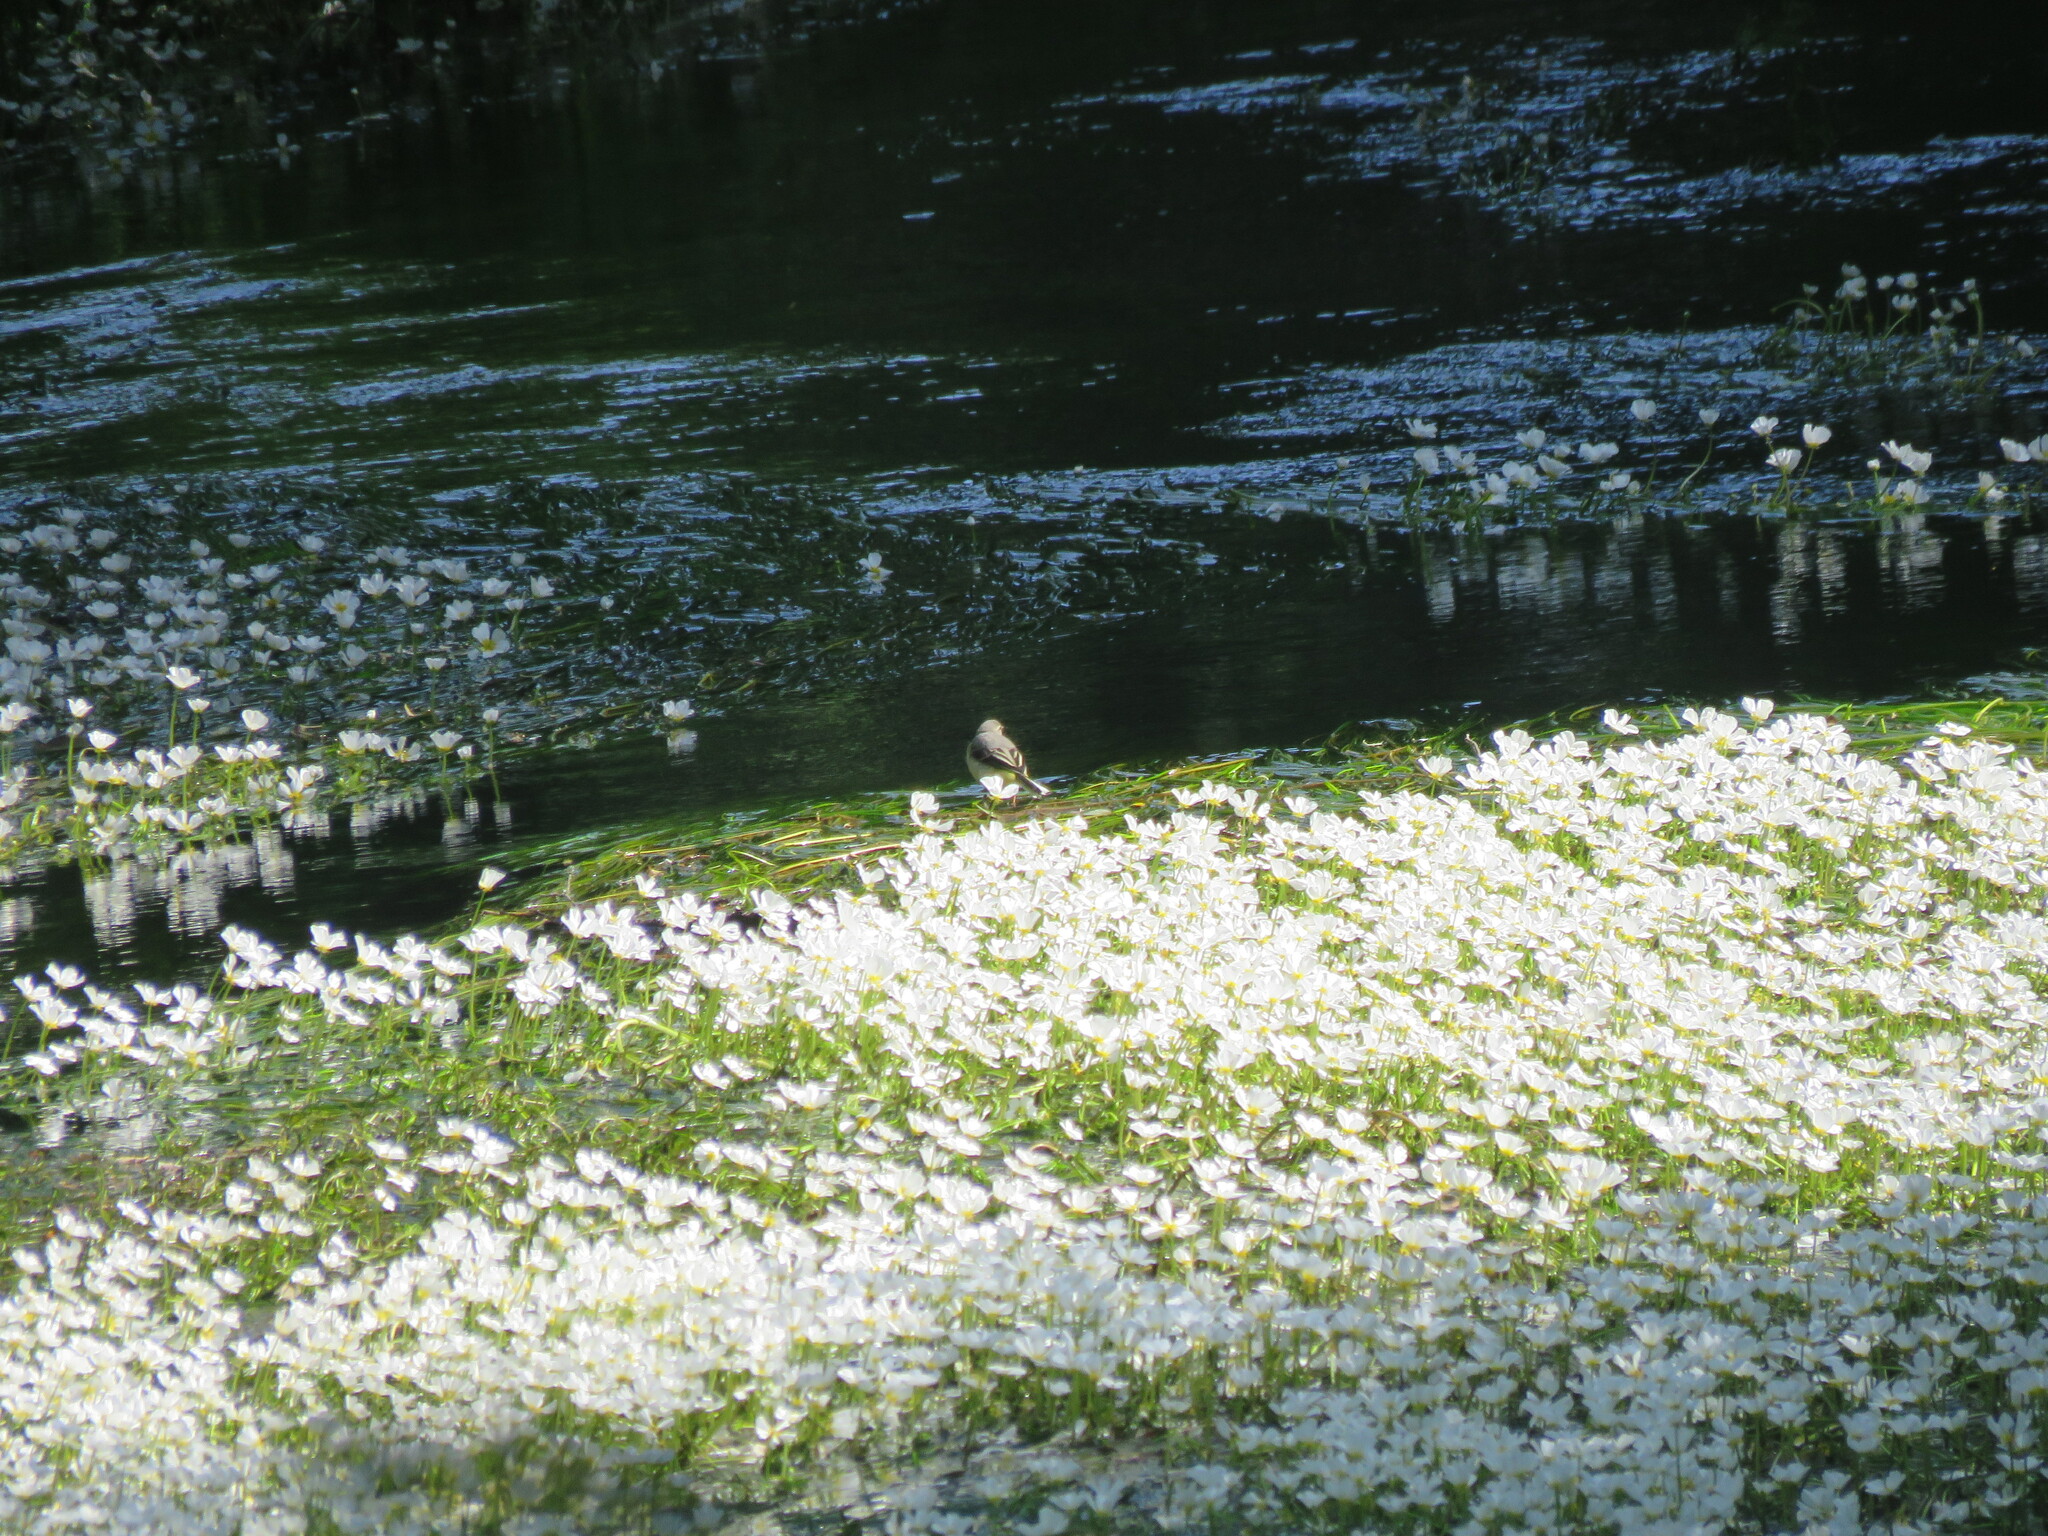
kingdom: Animalia
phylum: Chordata
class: Aves
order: Passeriformes
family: Motacillidae
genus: Motacilla
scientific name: Motacilla cinerea
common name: Grey wagtail
